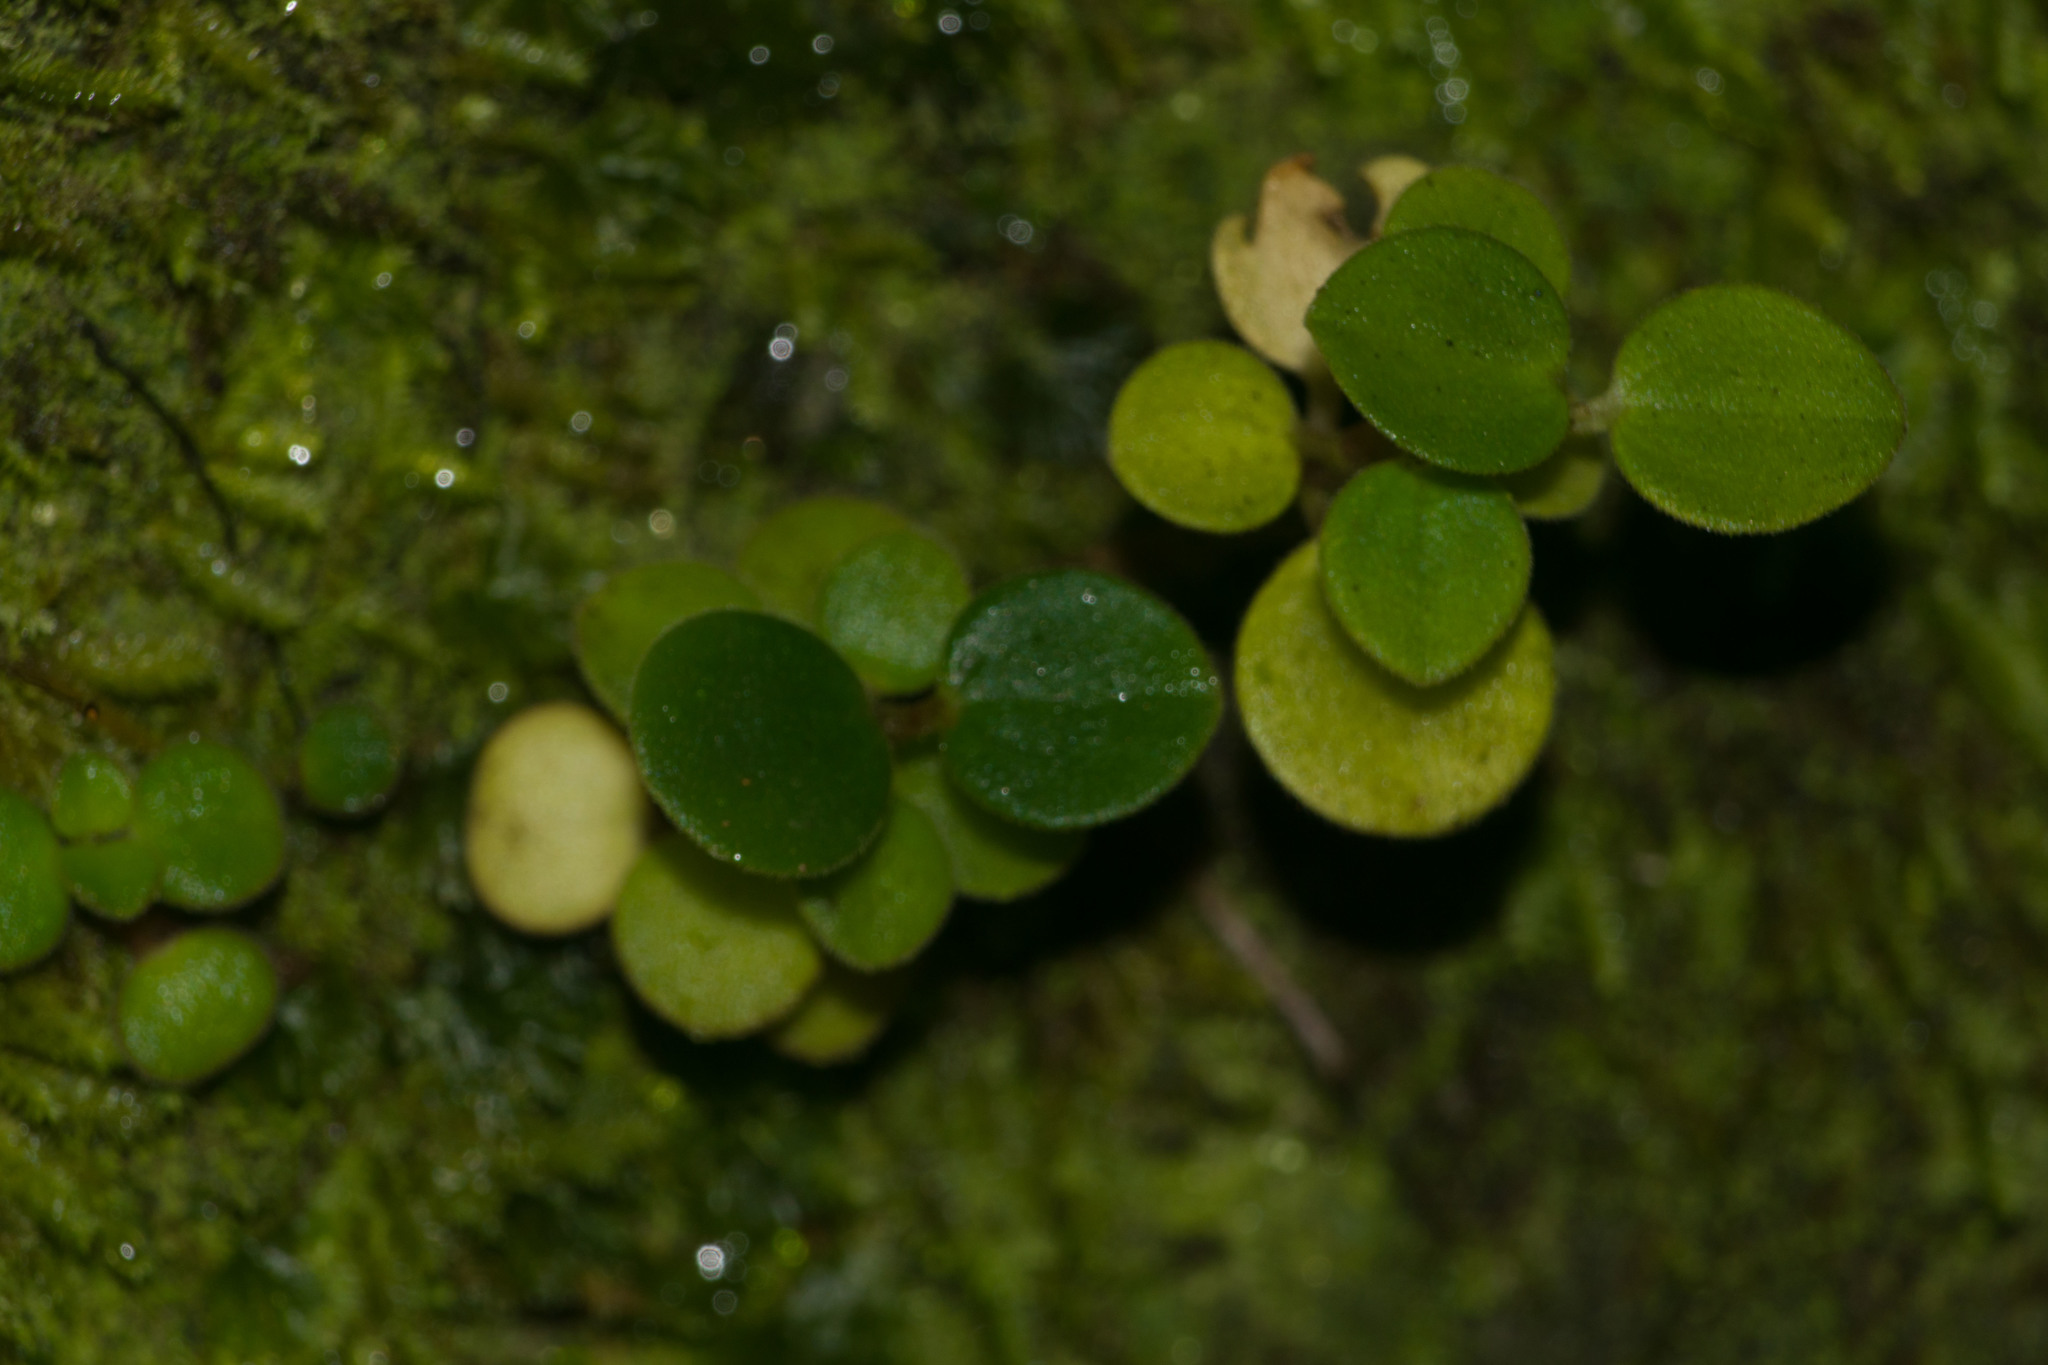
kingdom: Plantae
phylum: Tracheophyta
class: Magnoliopsida
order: Piperales
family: Piperaceae
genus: Peperomia
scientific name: Peperomia tetraphylla
